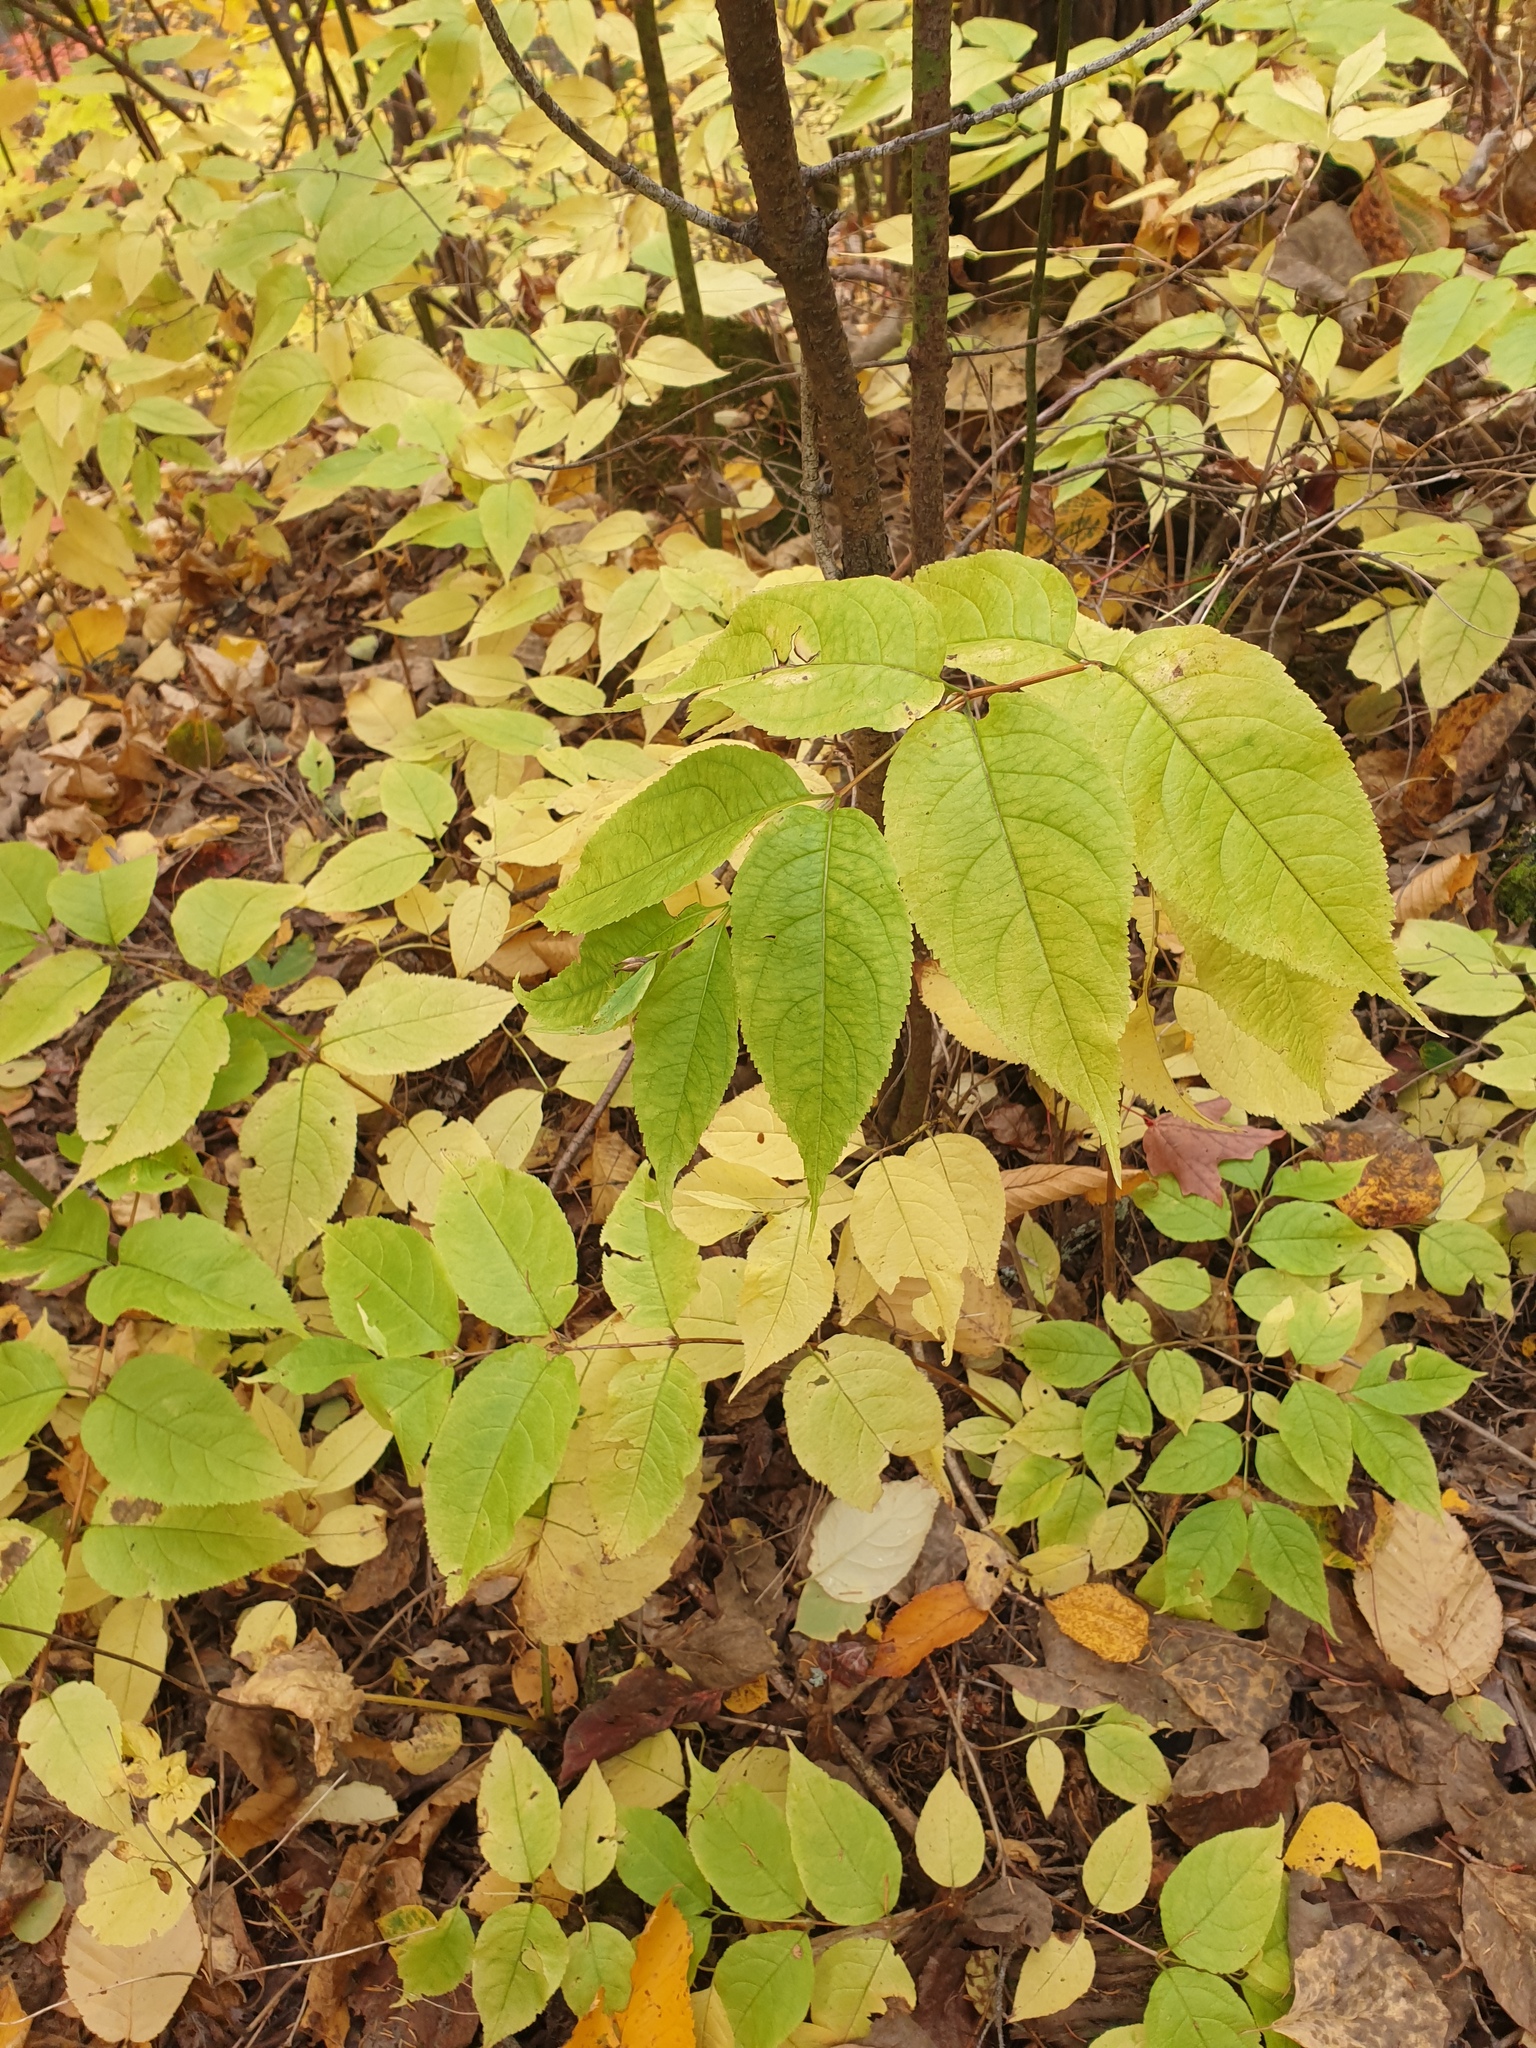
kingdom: Plantae
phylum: Tracheophyta
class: Magnoliopsida
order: Dipsacales
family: Caprifoliaceae
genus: Lonicera
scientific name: Lonicera canadensis
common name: American fly-honeysuckle
